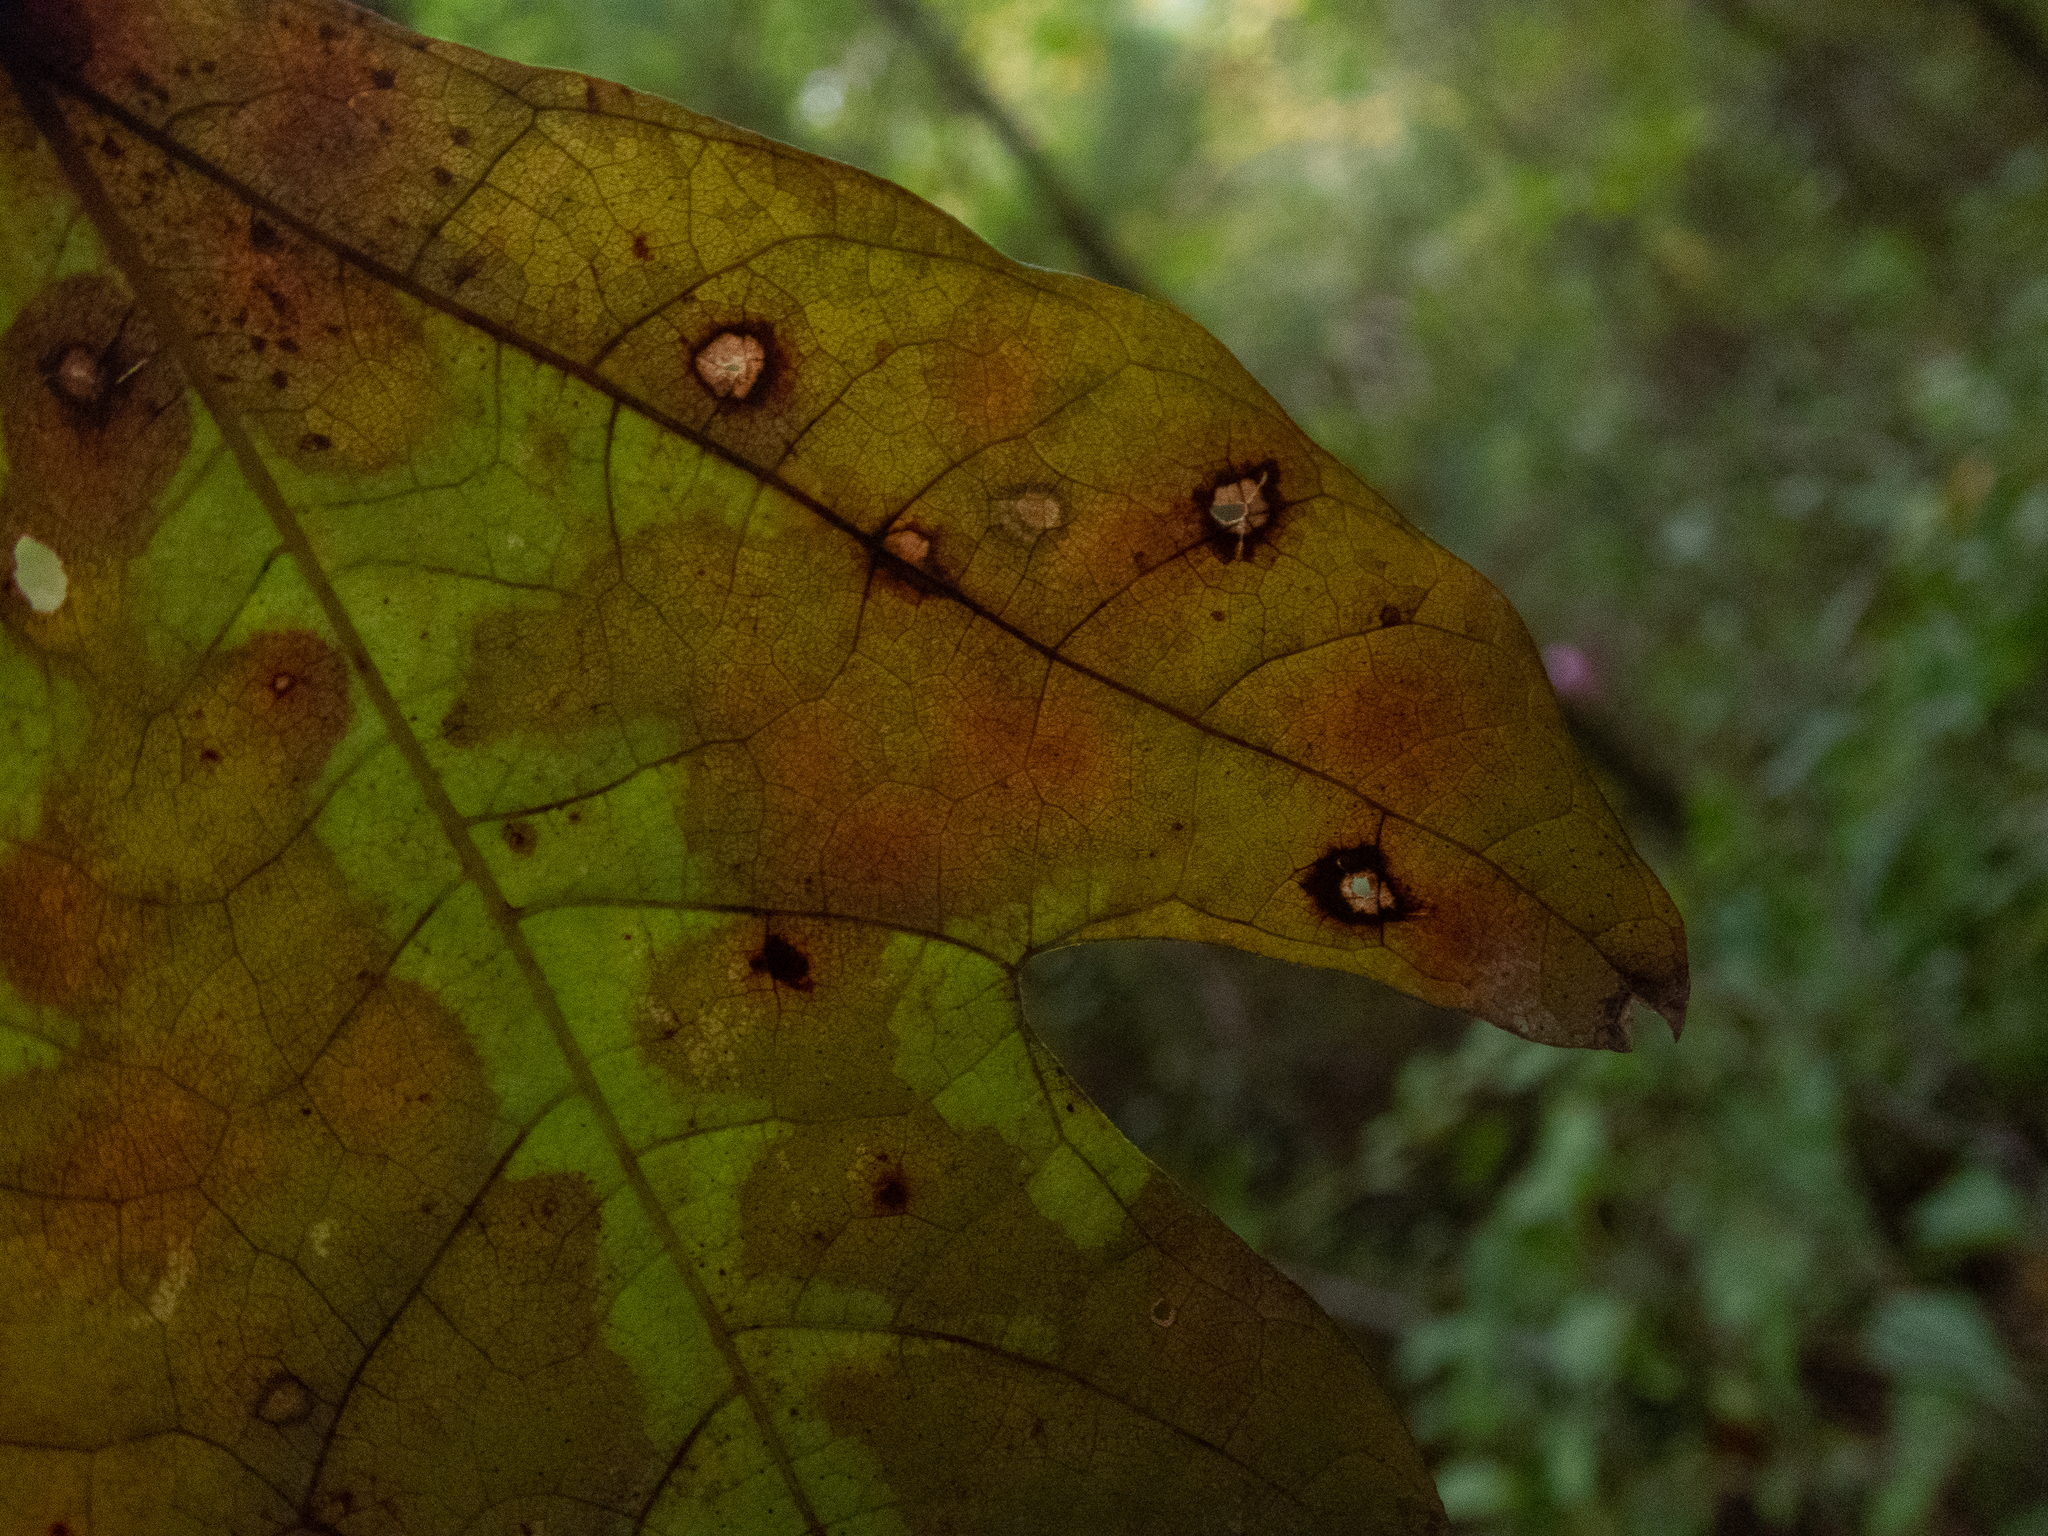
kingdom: Plantae
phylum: Tracheophyta
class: Magnoliopsida
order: Laurales
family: Lauraceae
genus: Sassafras
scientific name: Sassafras albidum
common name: Sassafras
